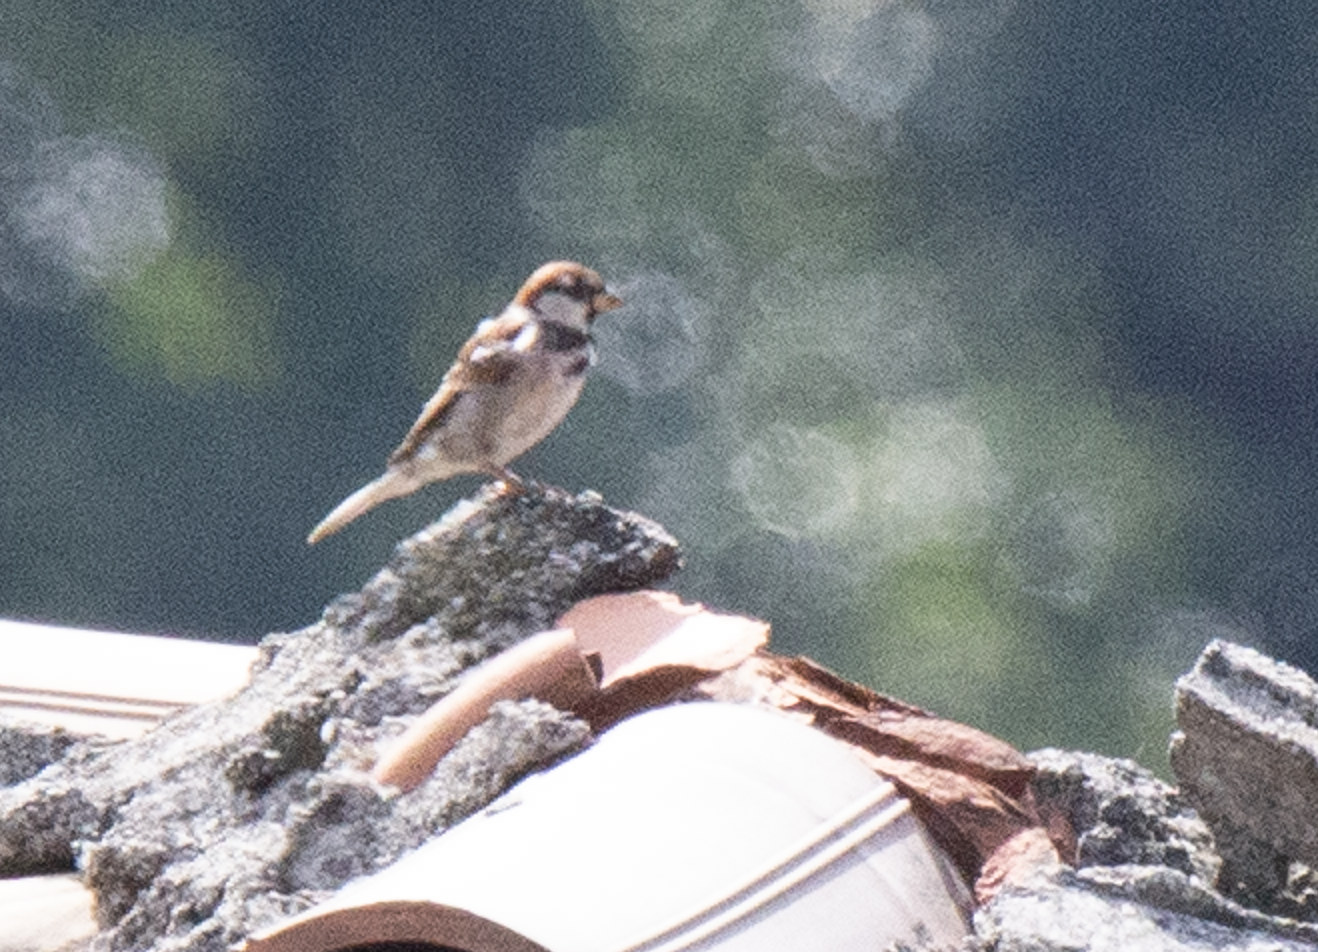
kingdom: Animalia
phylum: Chordata
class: Aves
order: Passeriformes
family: Passeridae
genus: Passer
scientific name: Passer italiae
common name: Italian sparrow
